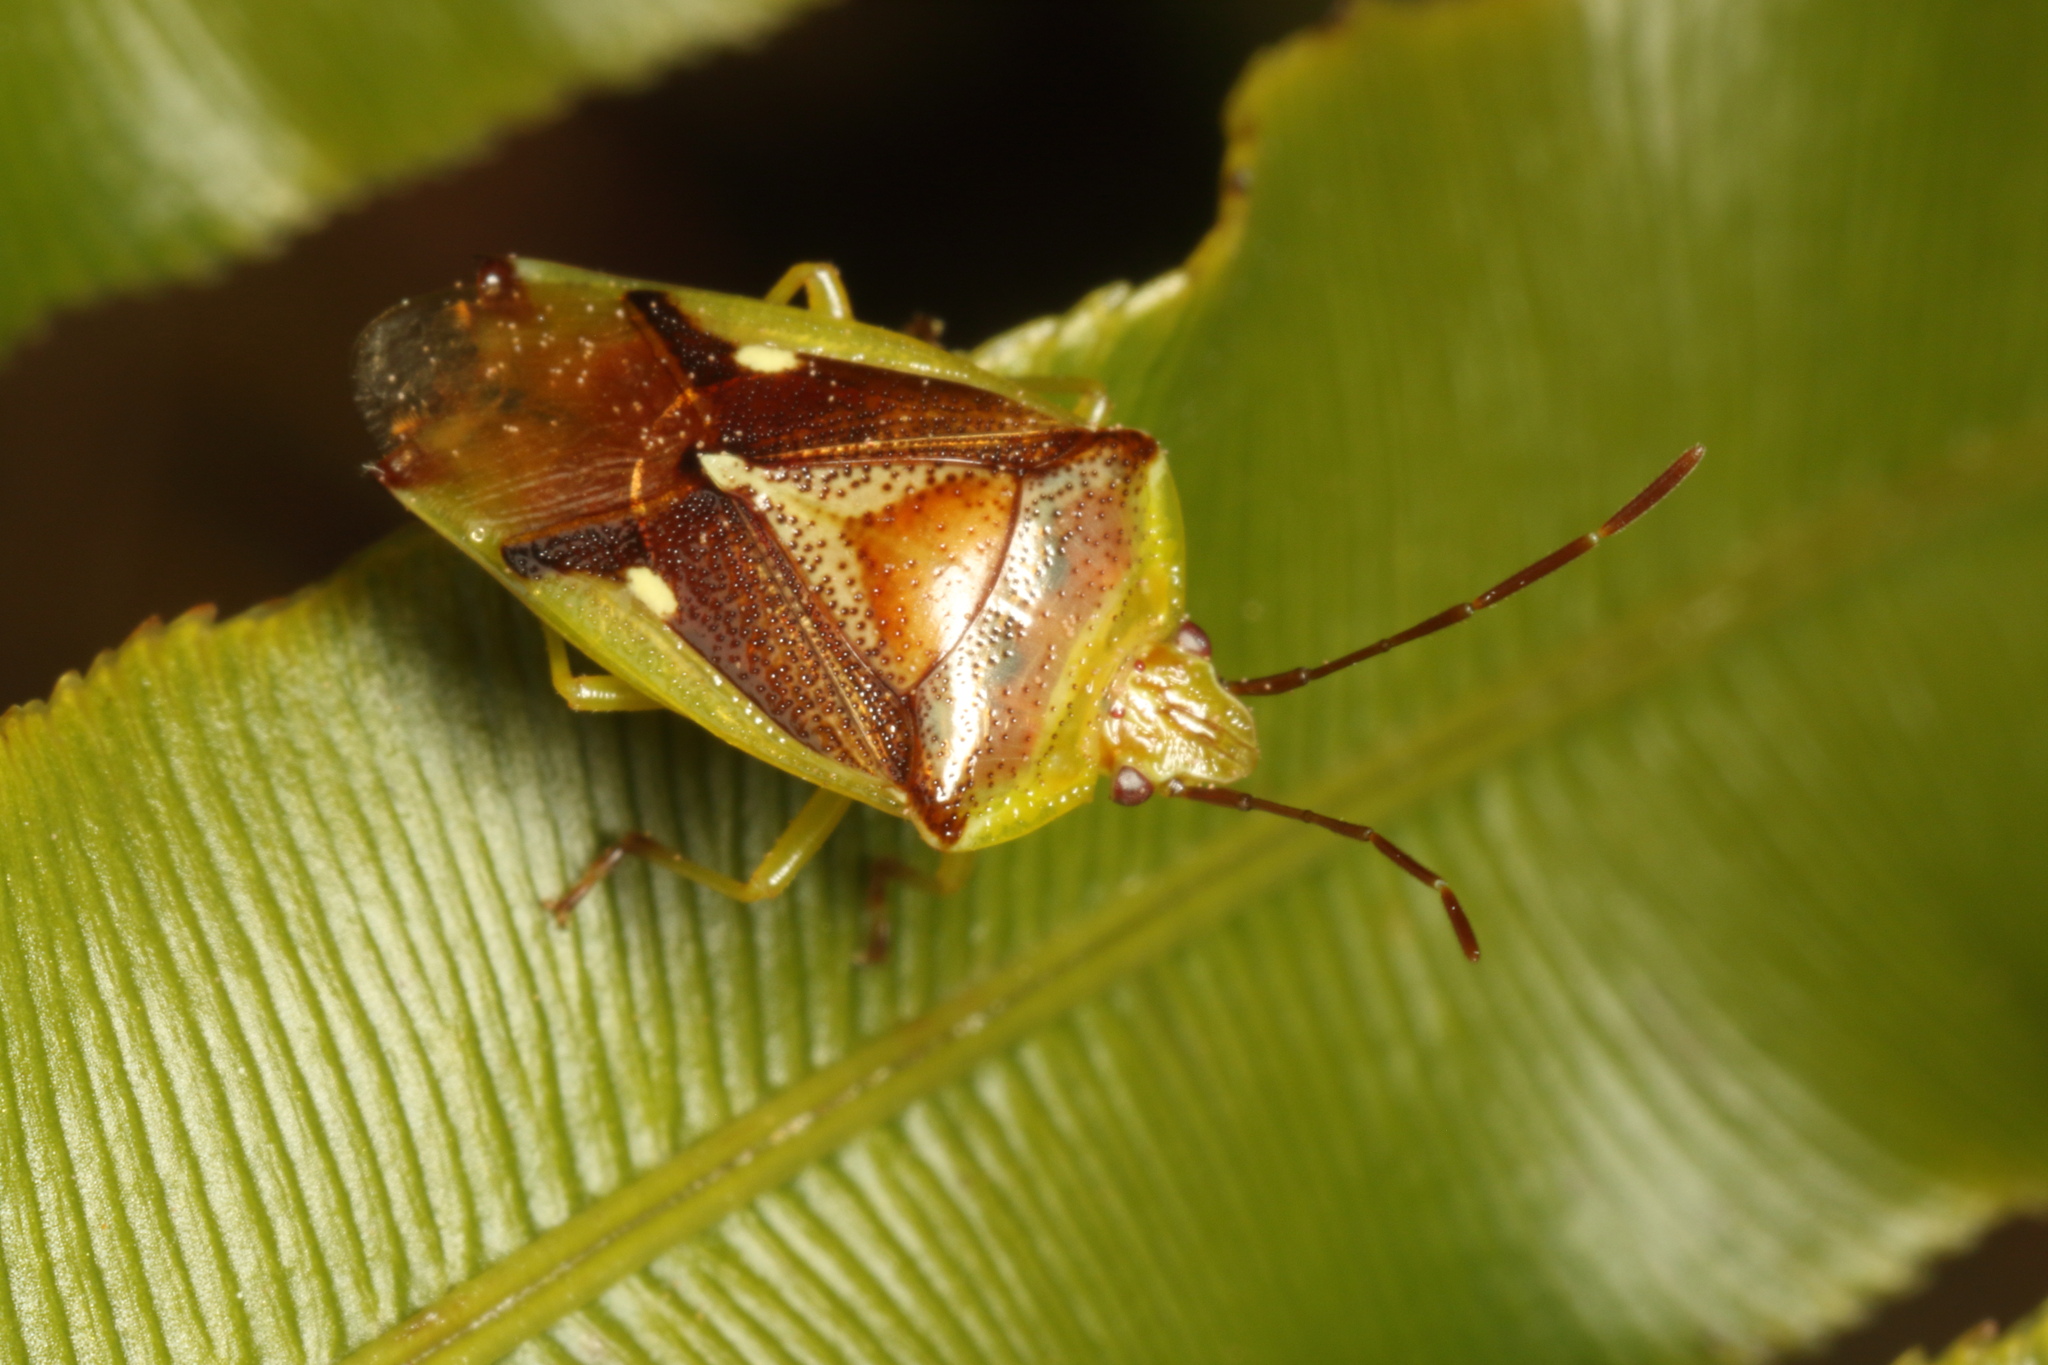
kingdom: Animalia
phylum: Arthropoda
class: Insecta
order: Hemiptera
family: Acanthosomatidae
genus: Oncacontias
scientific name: Oncacontias vittatus
